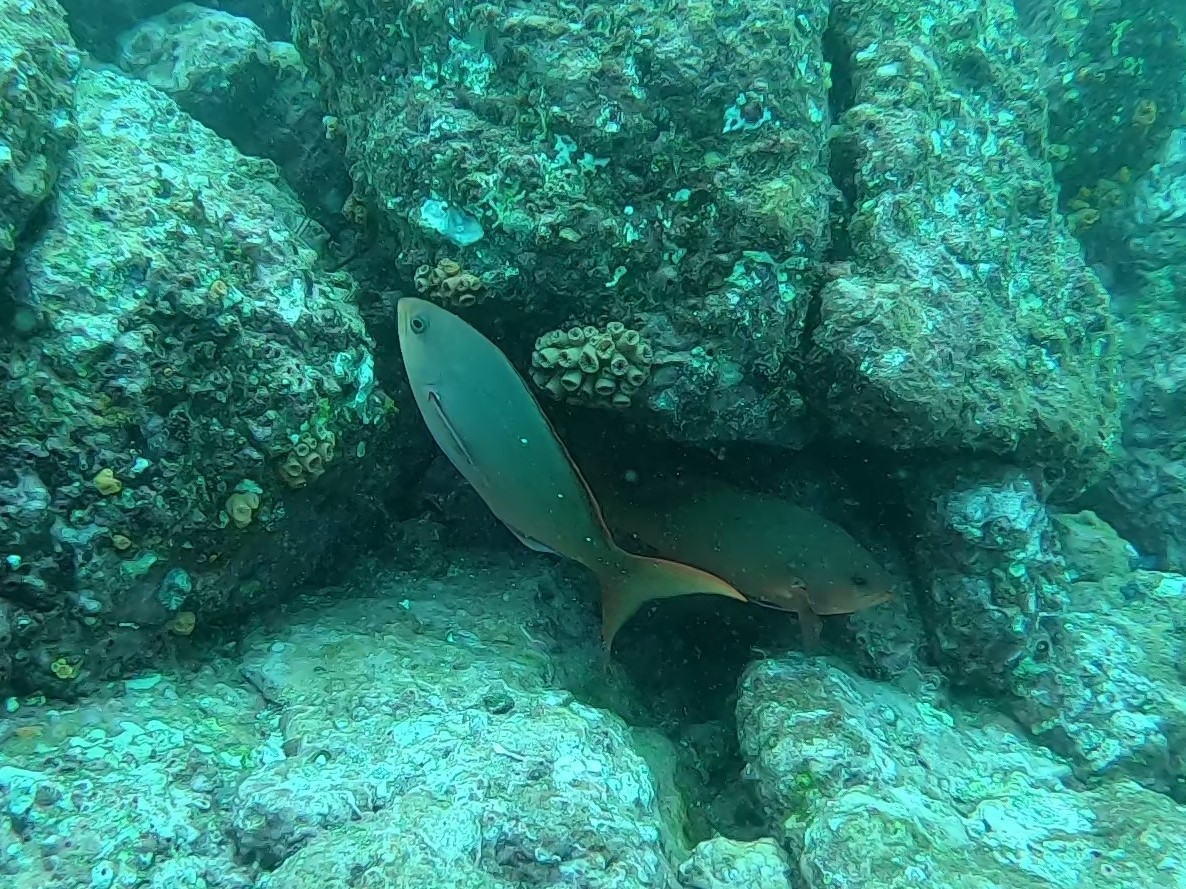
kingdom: Animalia
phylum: Chordata
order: Perciformes
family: Serranidae
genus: Paranthias
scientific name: Paranthias colonus
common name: Pacific creole-fish
